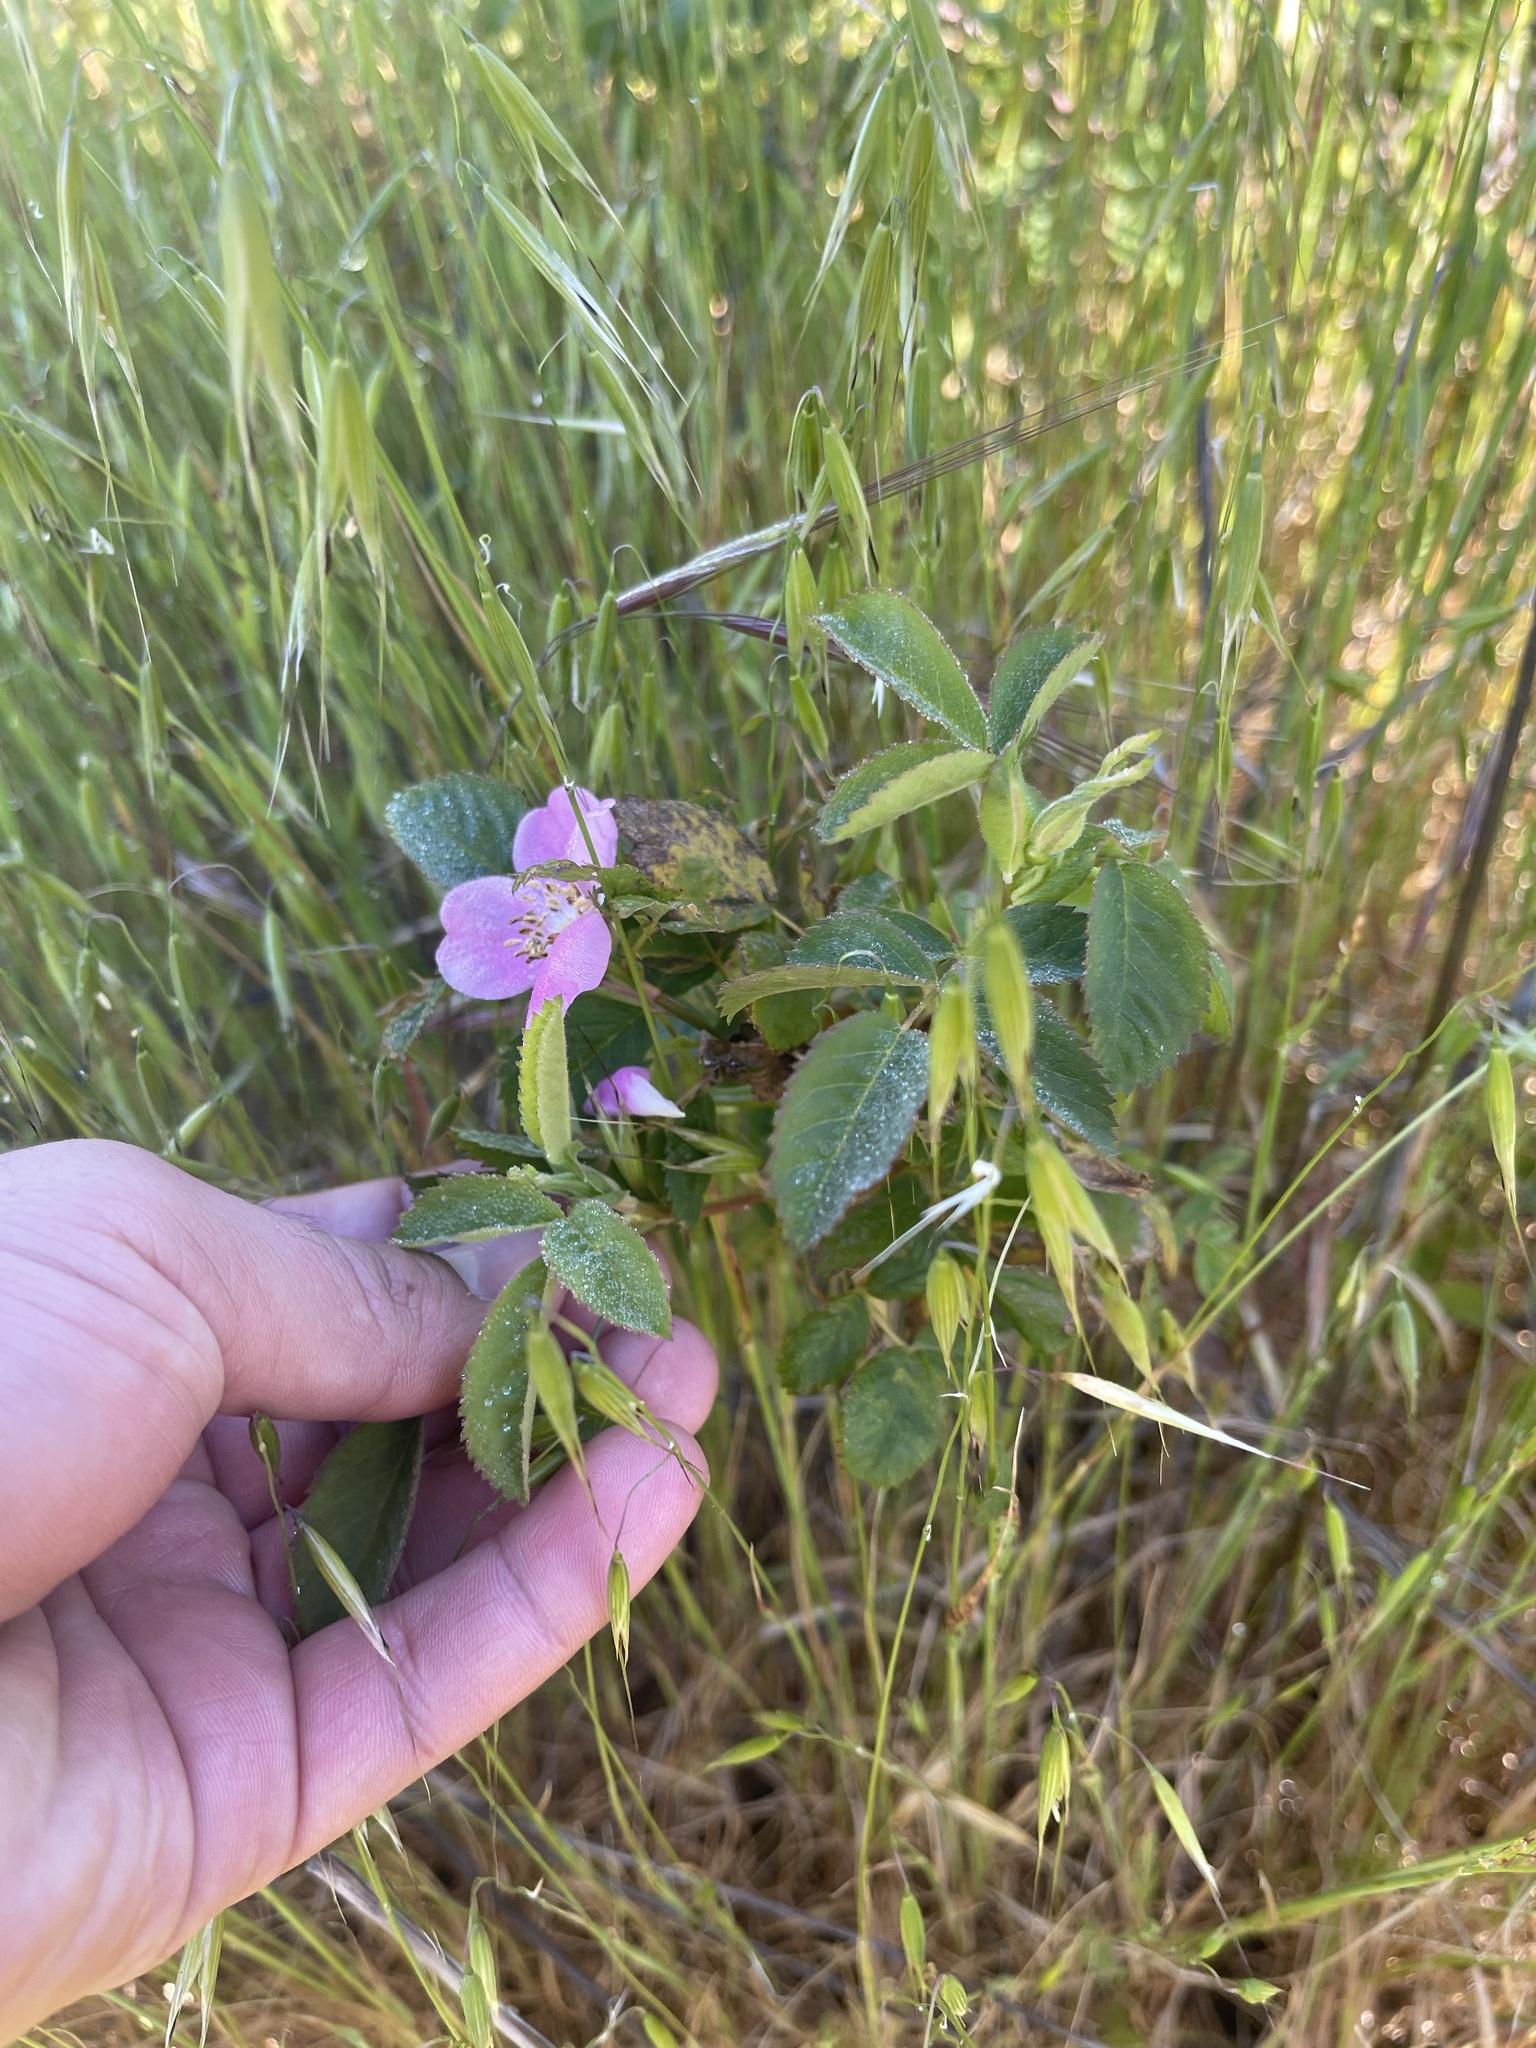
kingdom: Plantae
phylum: Tracheophyta
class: Magnoliopsida
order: Rosales
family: Rosaceae
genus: Rosa
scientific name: Rosa californica
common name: California rose
